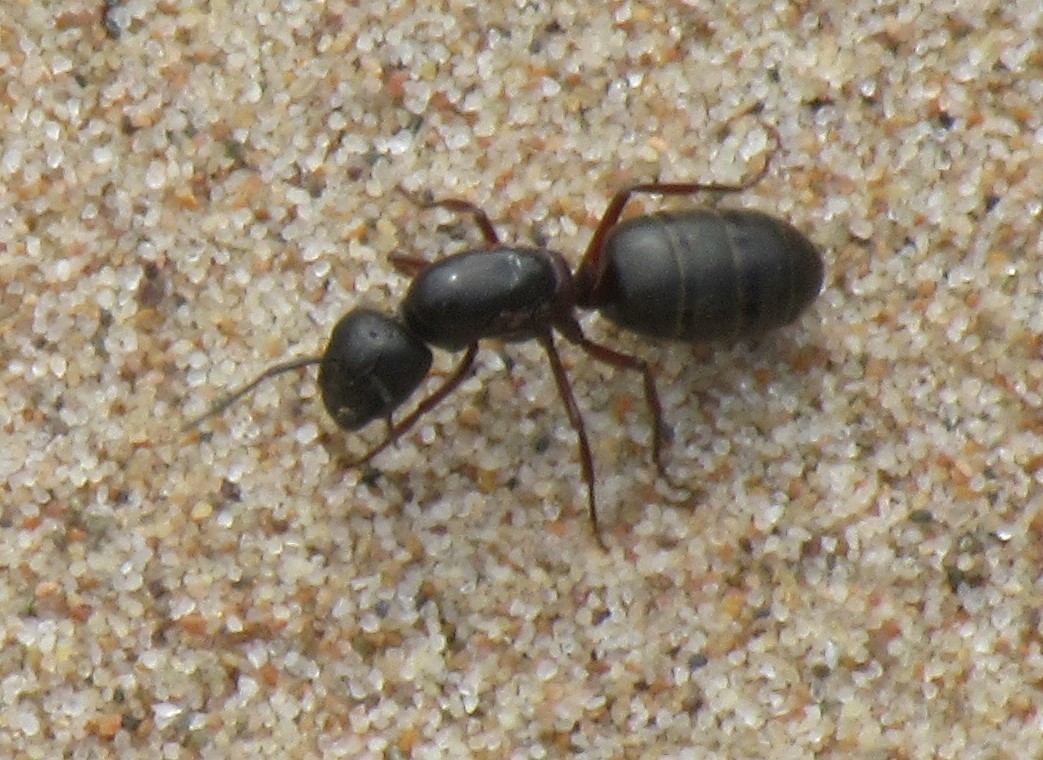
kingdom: Animalia
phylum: Arthropoda
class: Insecta
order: Hymenoptera
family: Formicidae
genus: Camponotus
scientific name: Camponotus herculeanus
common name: Hercules ant
